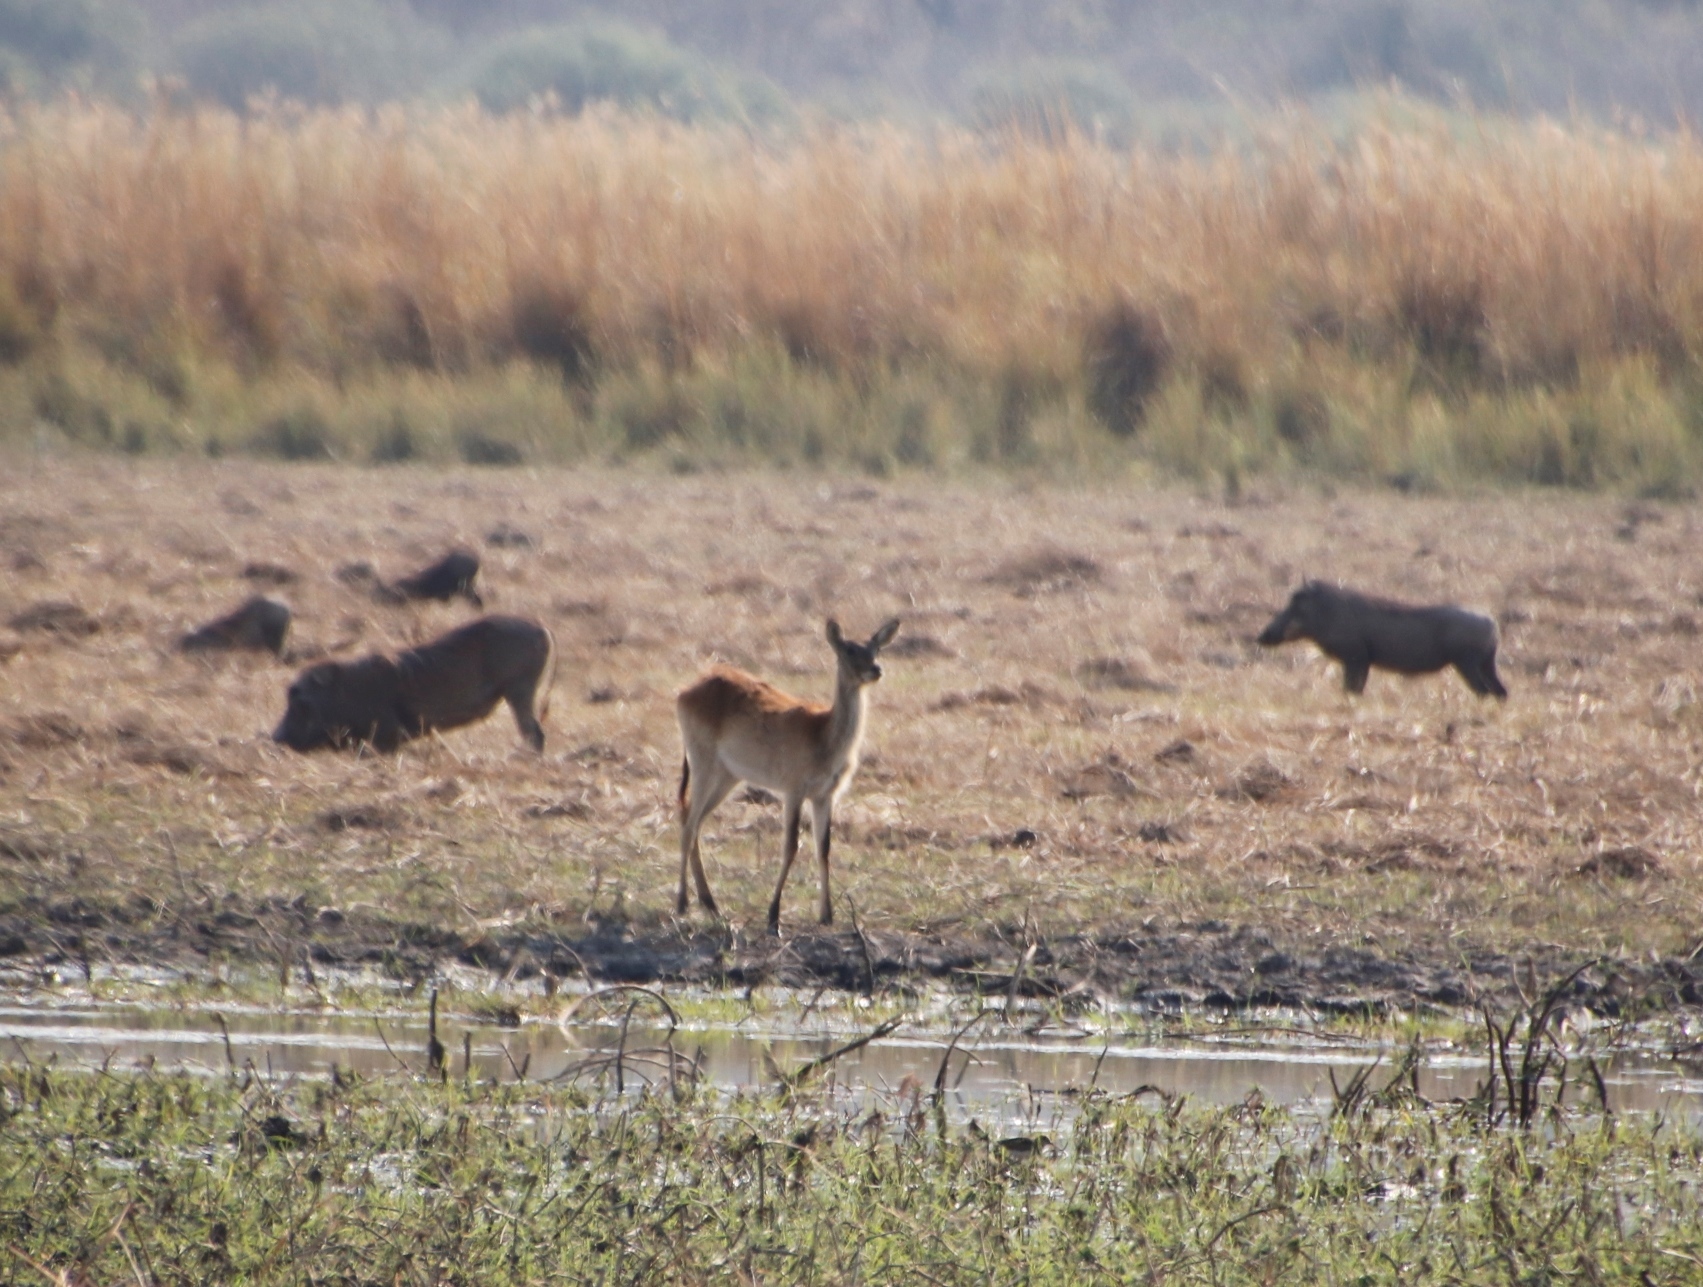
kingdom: Animalia
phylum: Chordata
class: Mammalia
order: Artiodactyla
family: Bovidae
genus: Kobus
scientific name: Kobus leche
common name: Lechwe
